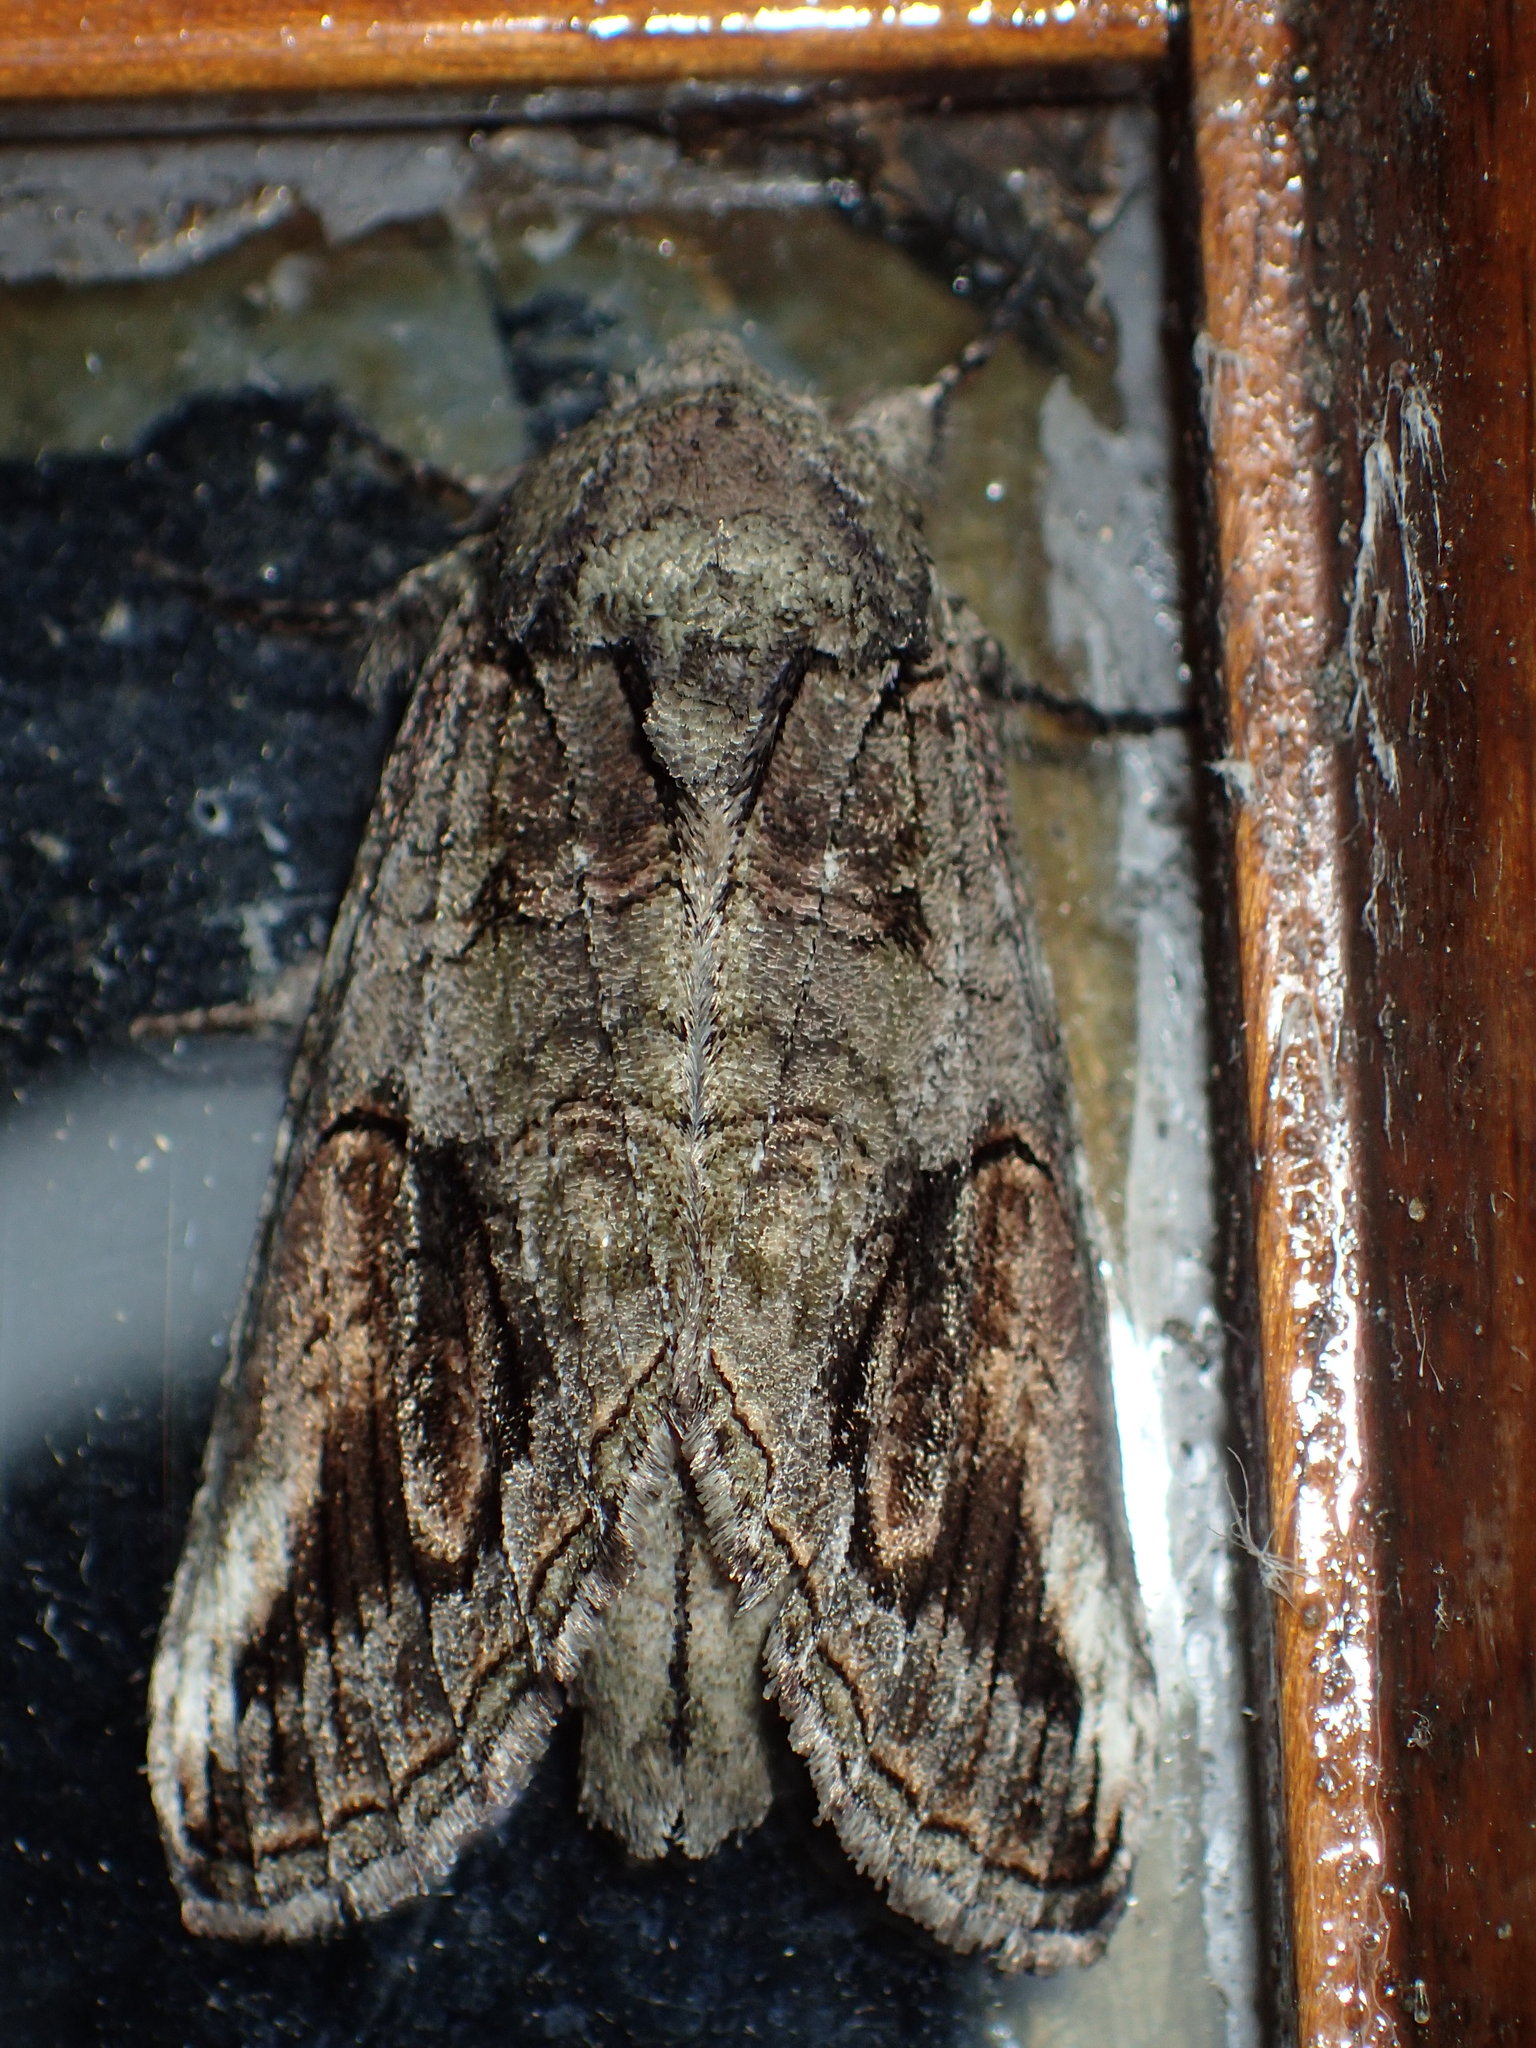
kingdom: Animalia
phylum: Arthropoda
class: Insecta
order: Lepidoptera
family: Notodontidae
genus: Heterocampa
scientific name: Heterocampa obliqua
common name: Oblique heterocampa
